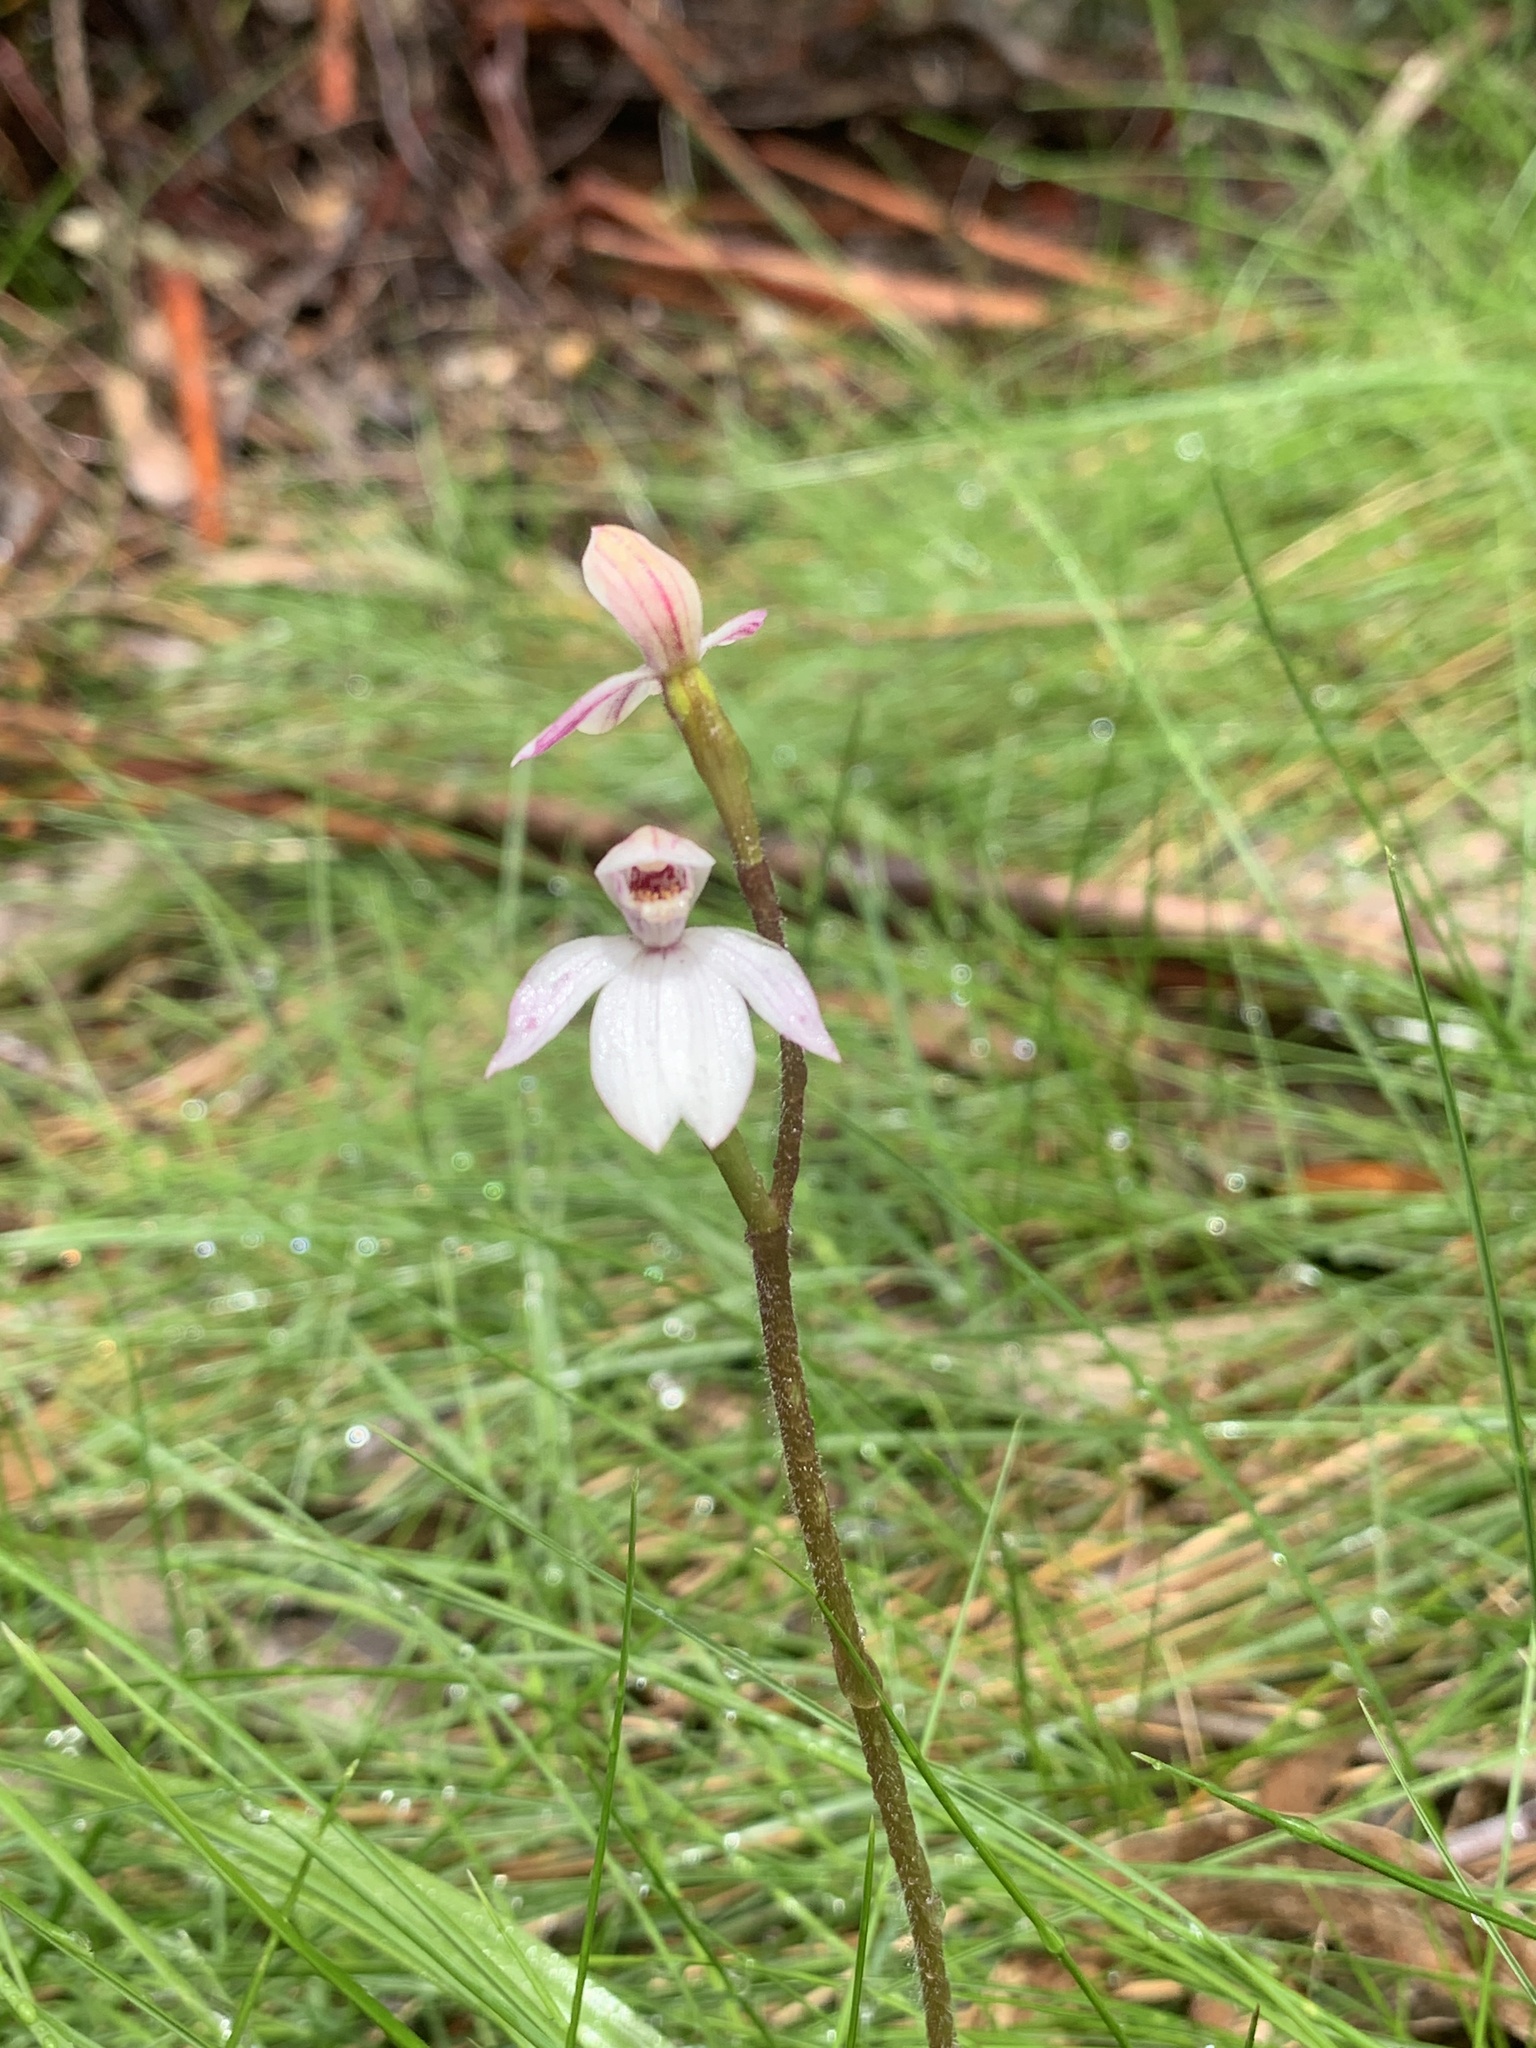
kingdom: Plantae
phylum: Tracheophyta
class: Liliopsida
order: Asparagales
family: Orchidaceae
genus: Caladenia
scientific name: Caladenia alpina
